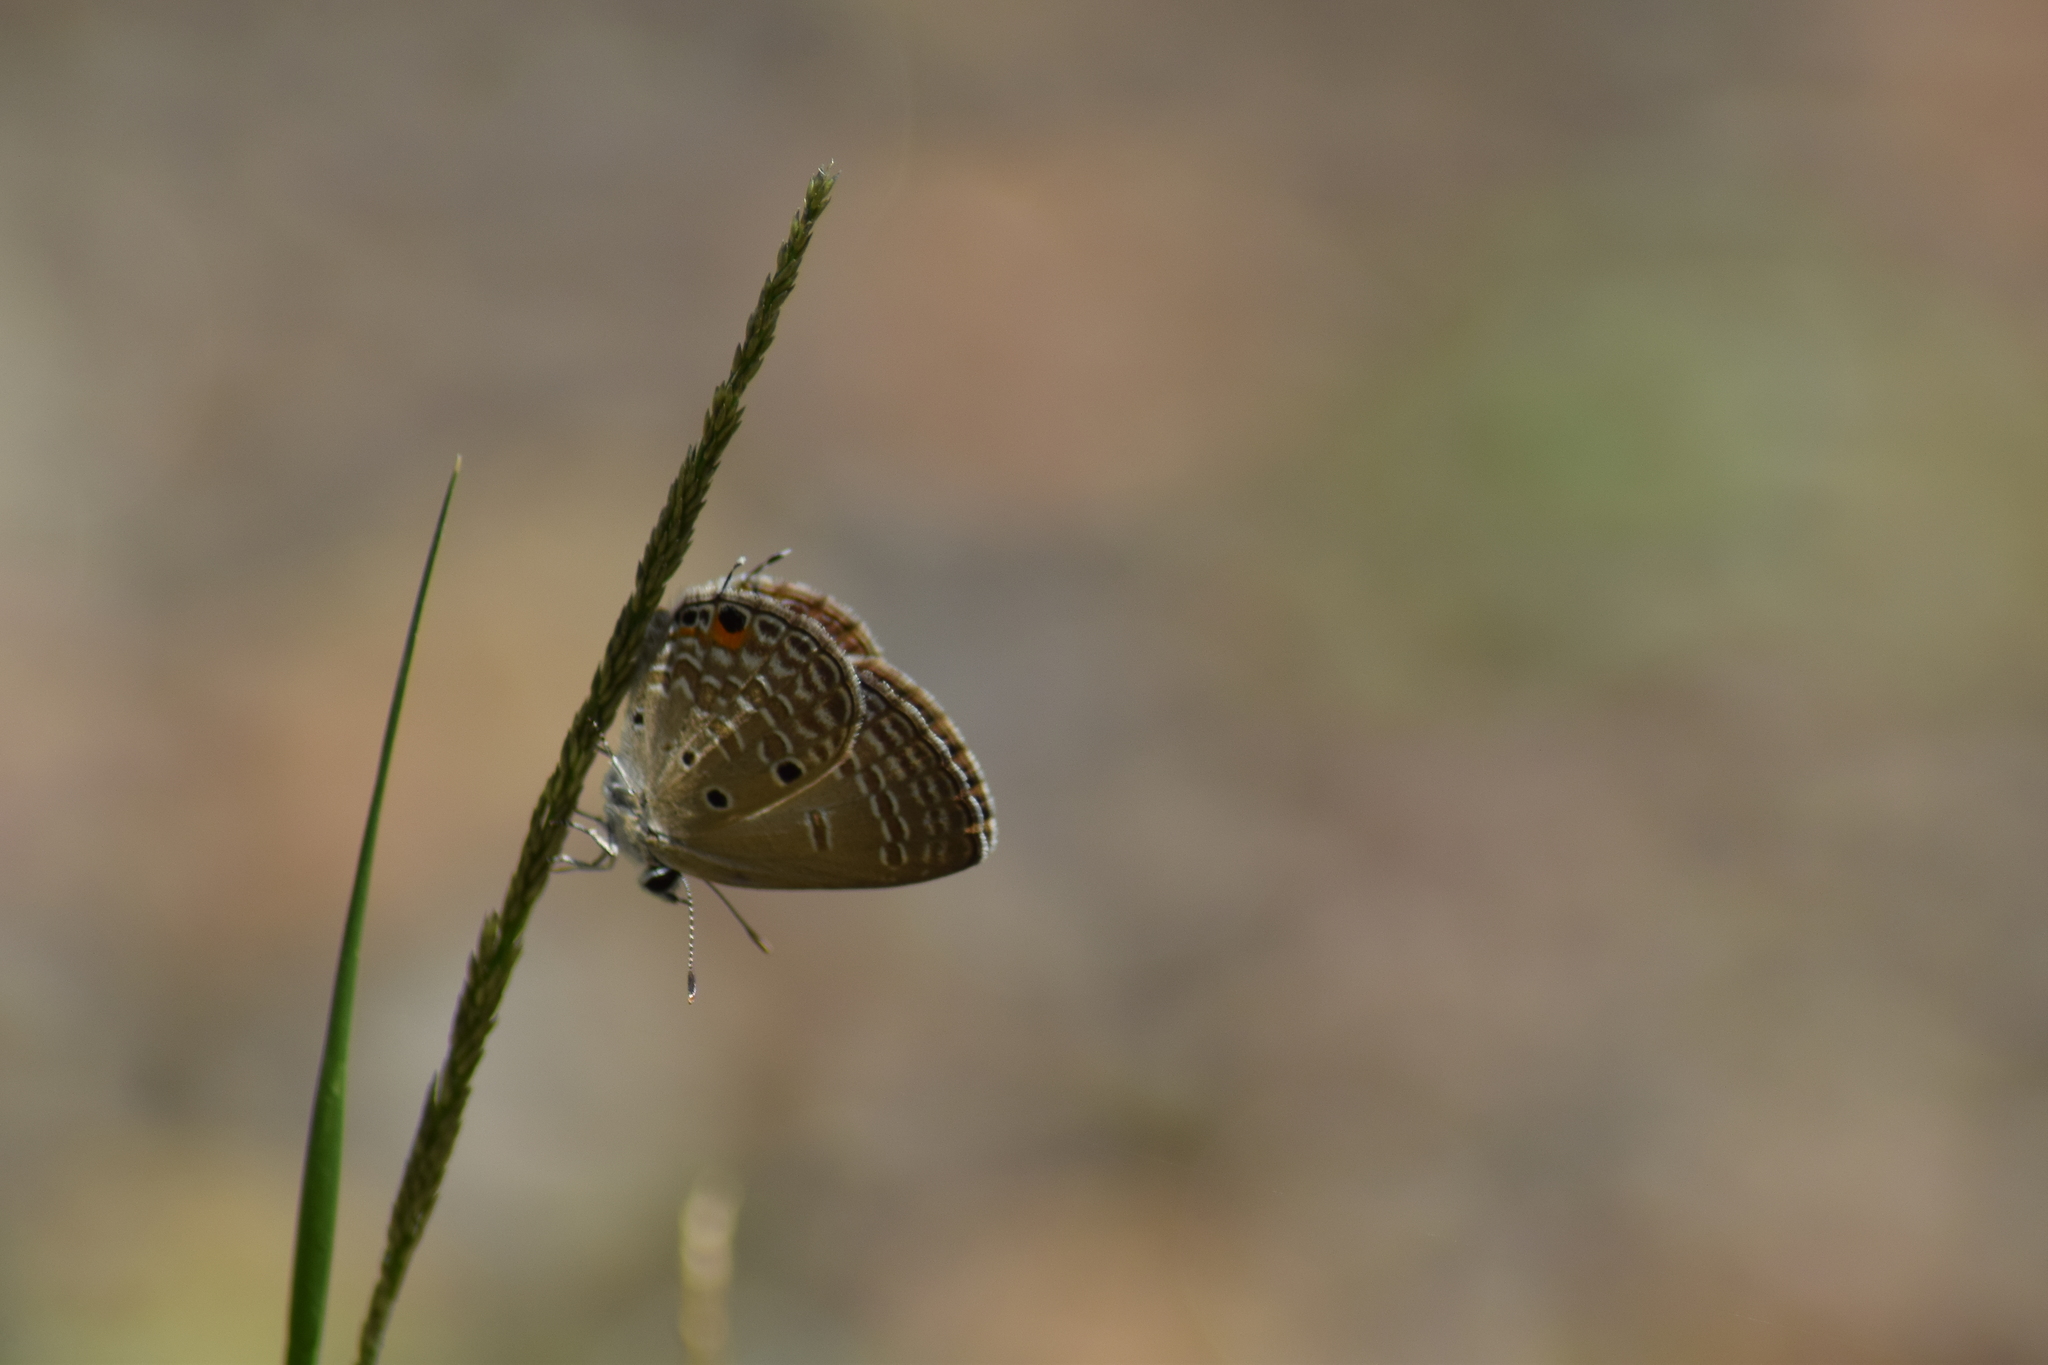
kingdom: Animalia
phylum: Arthropoda
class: Insecta
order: Lepidoptera
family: Lycaenidae
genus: Luthrodes
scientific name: Luthrodes pandava
